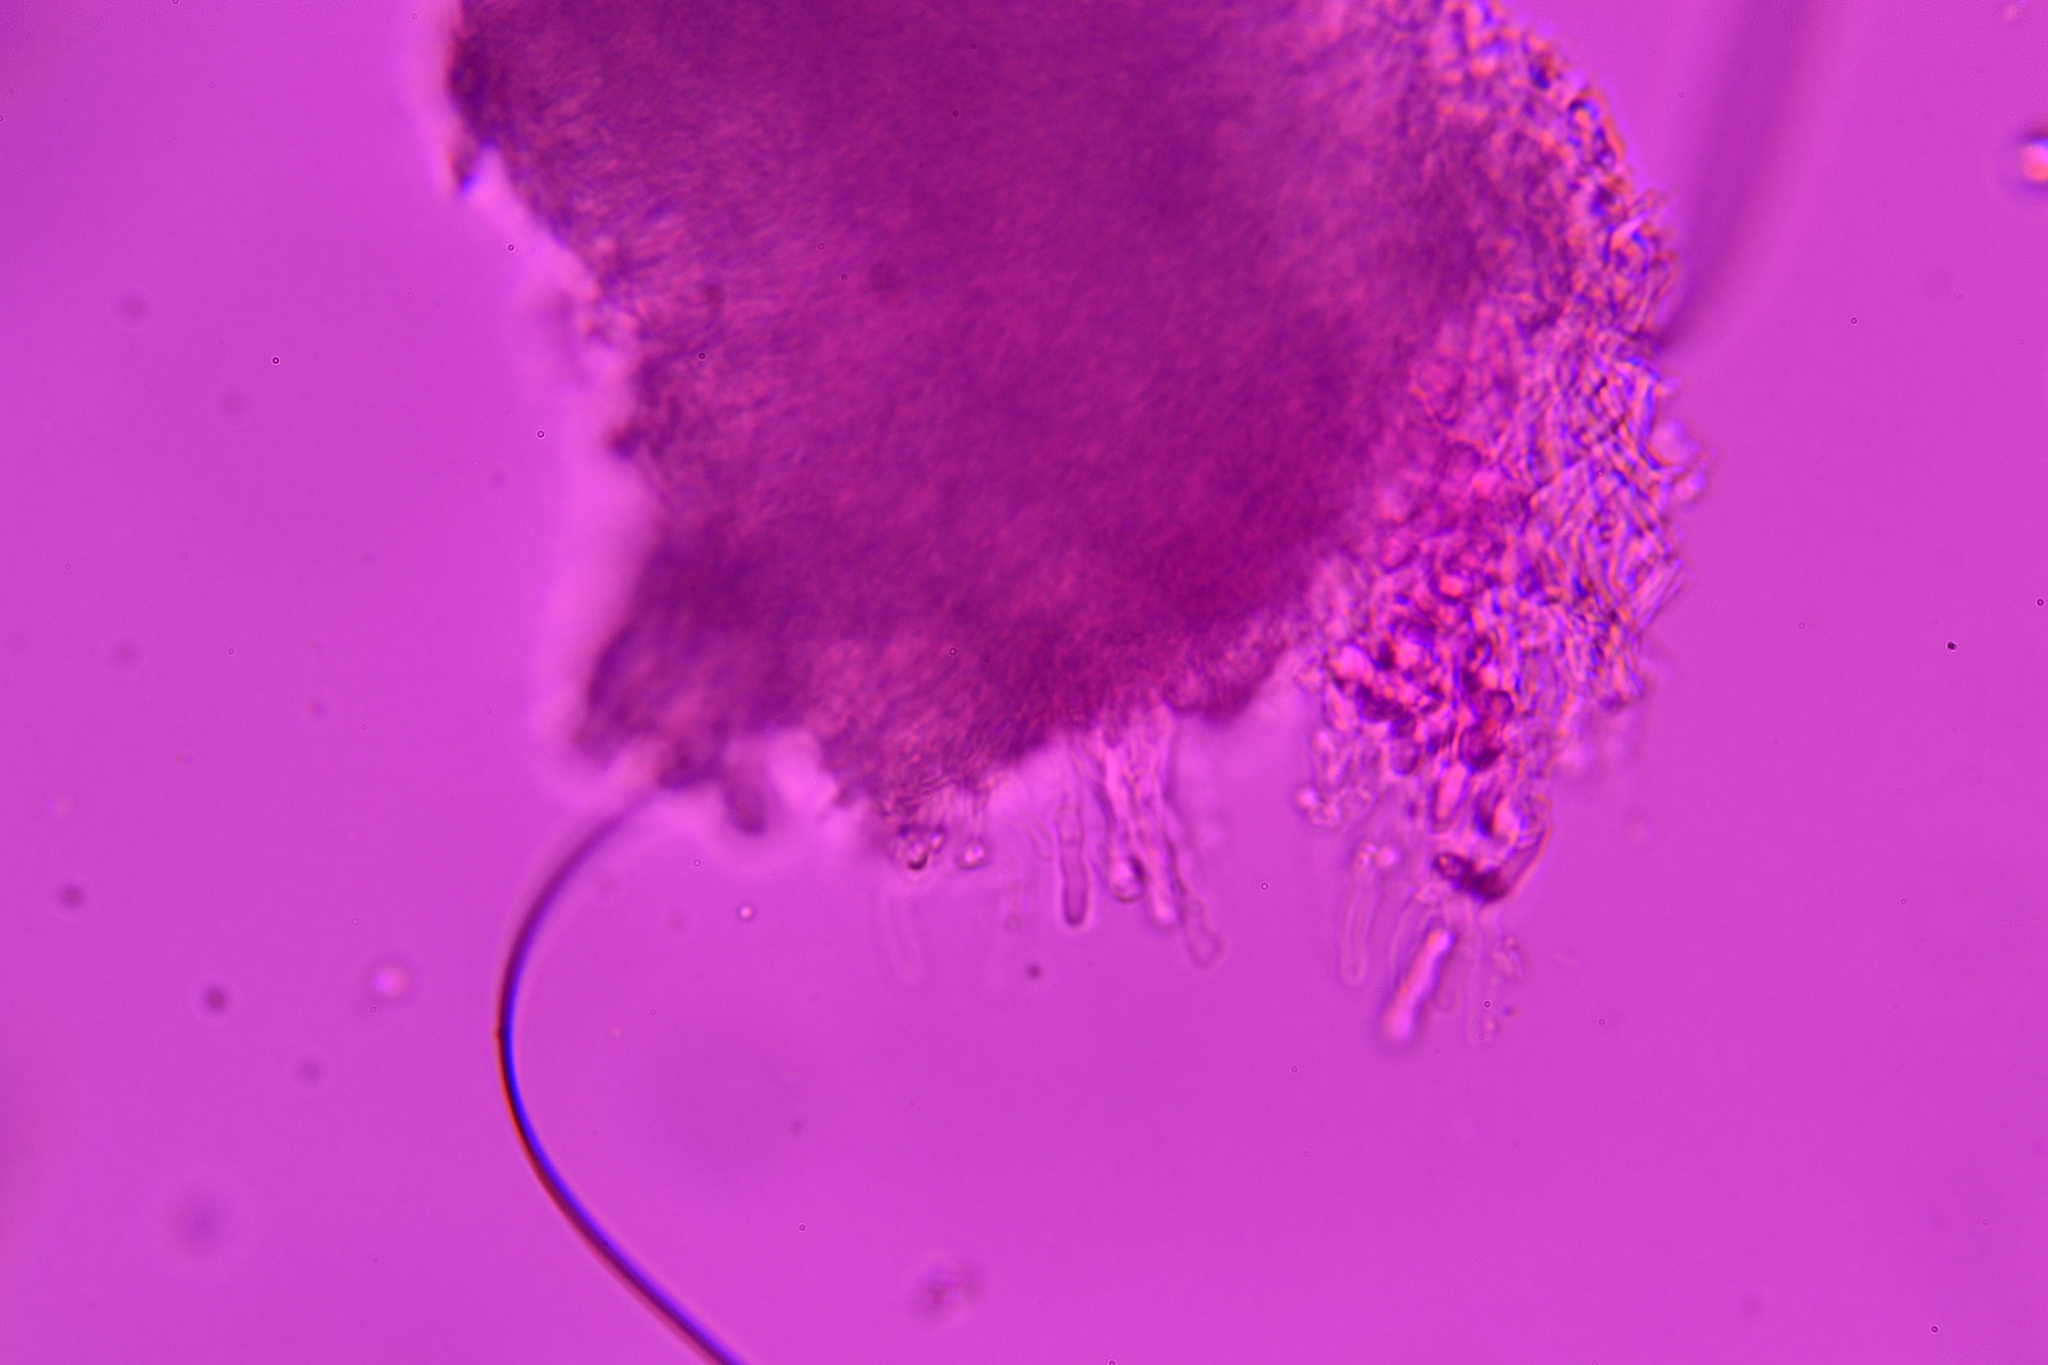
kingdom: Fungi
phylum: Basidiomycota
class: Agaricomycetes
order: Polyporales
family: Steccherinaceae
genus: Antrodiella
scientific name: Antrodiella semisupina
